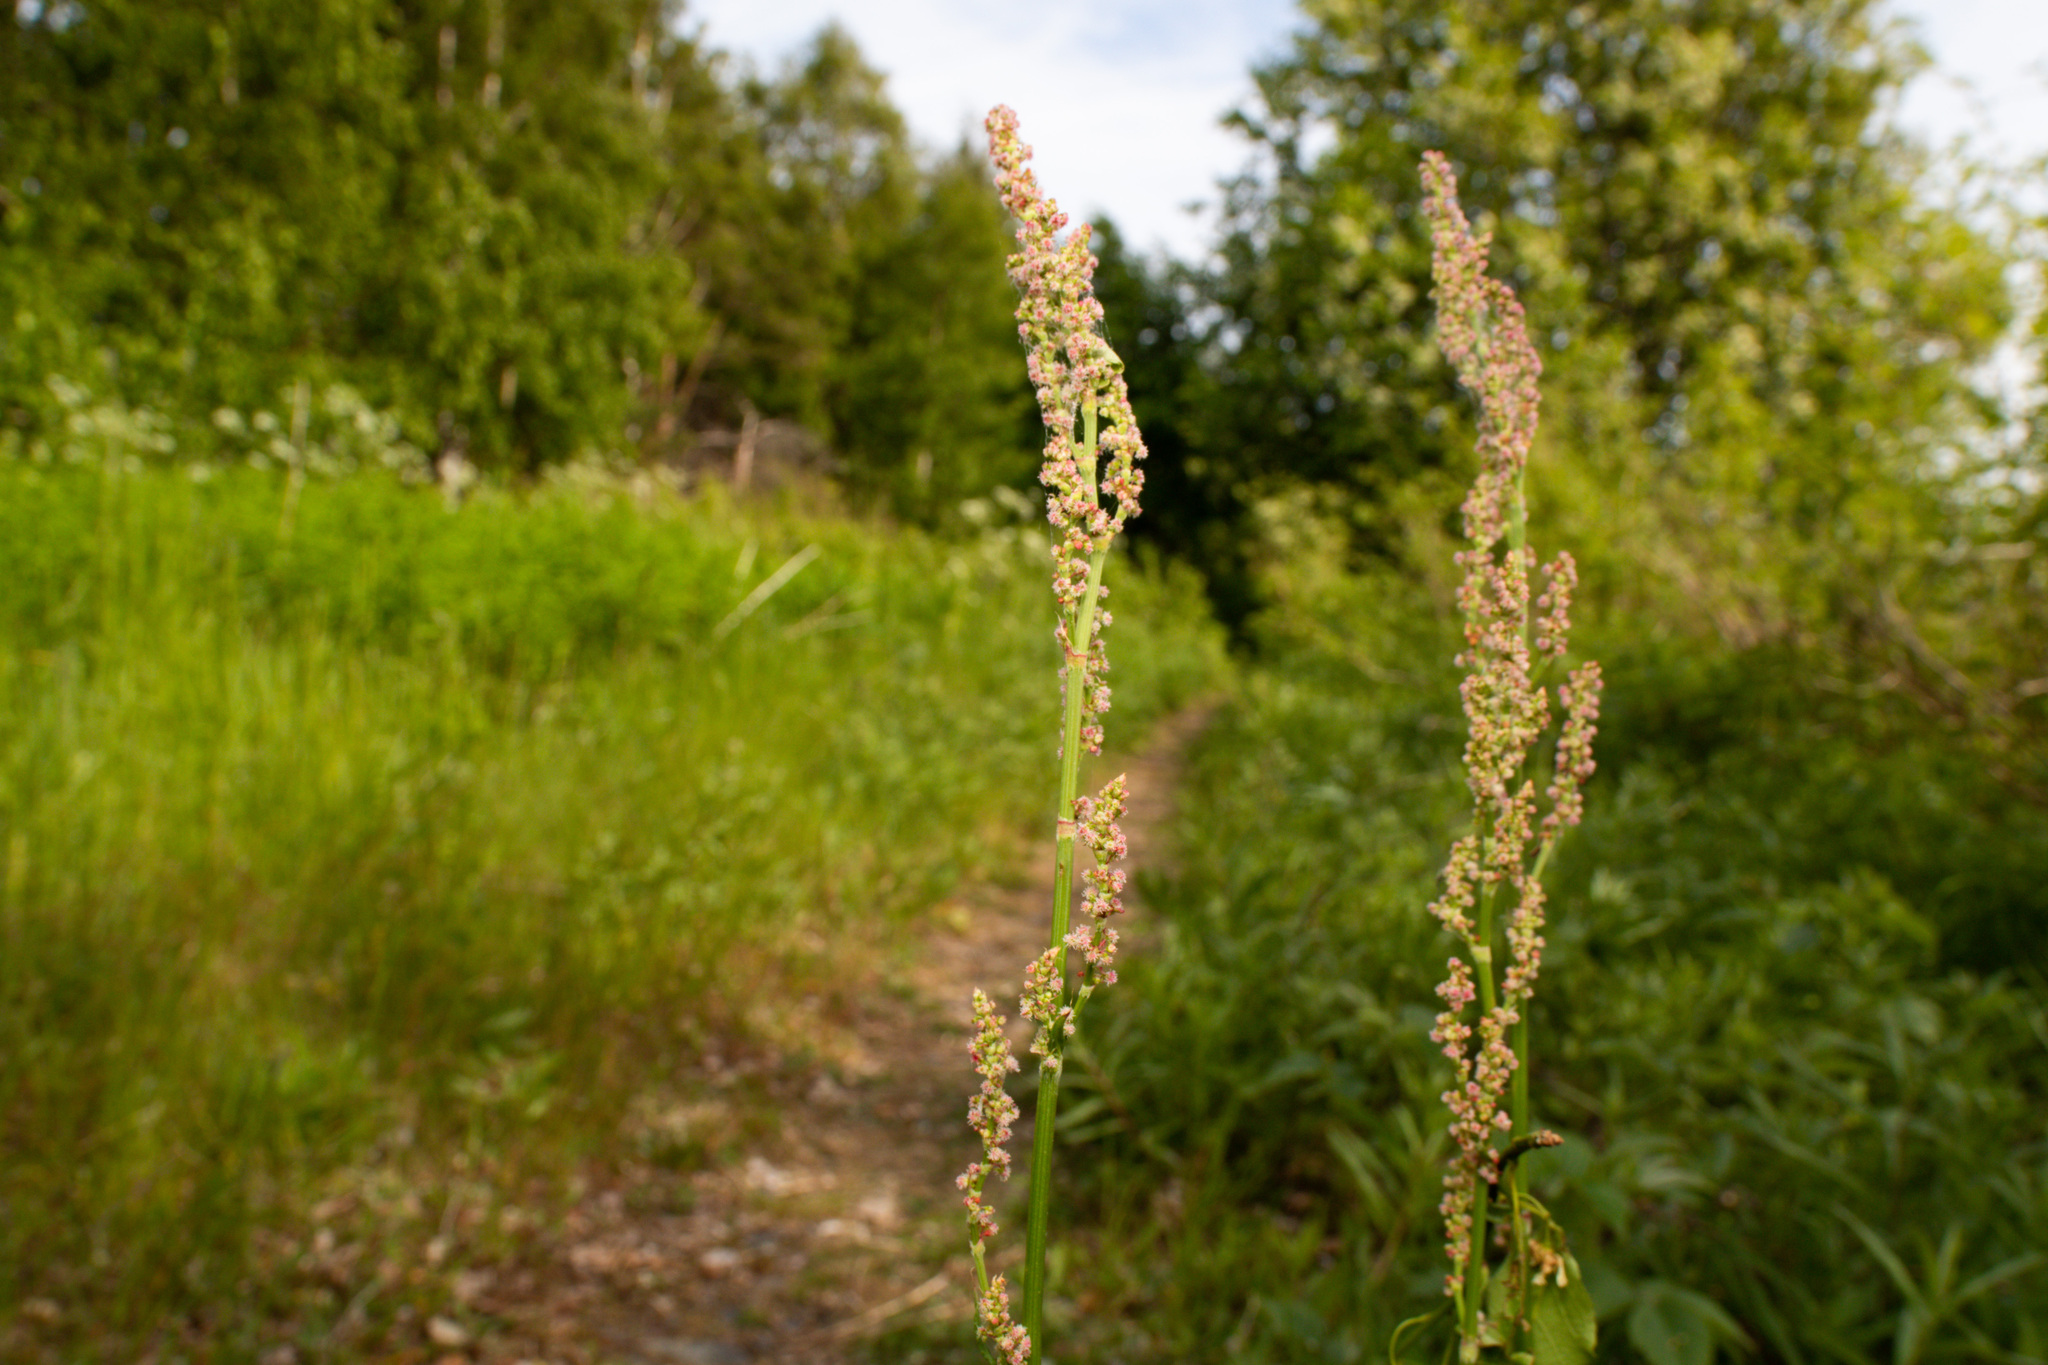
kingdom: Plantae
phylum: Tracheophyta
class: Magnoliopsida
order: Caryophyllales
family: Polygonaceae
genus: Rumex
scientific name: Rumex acetosa
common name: Garden sorrel
